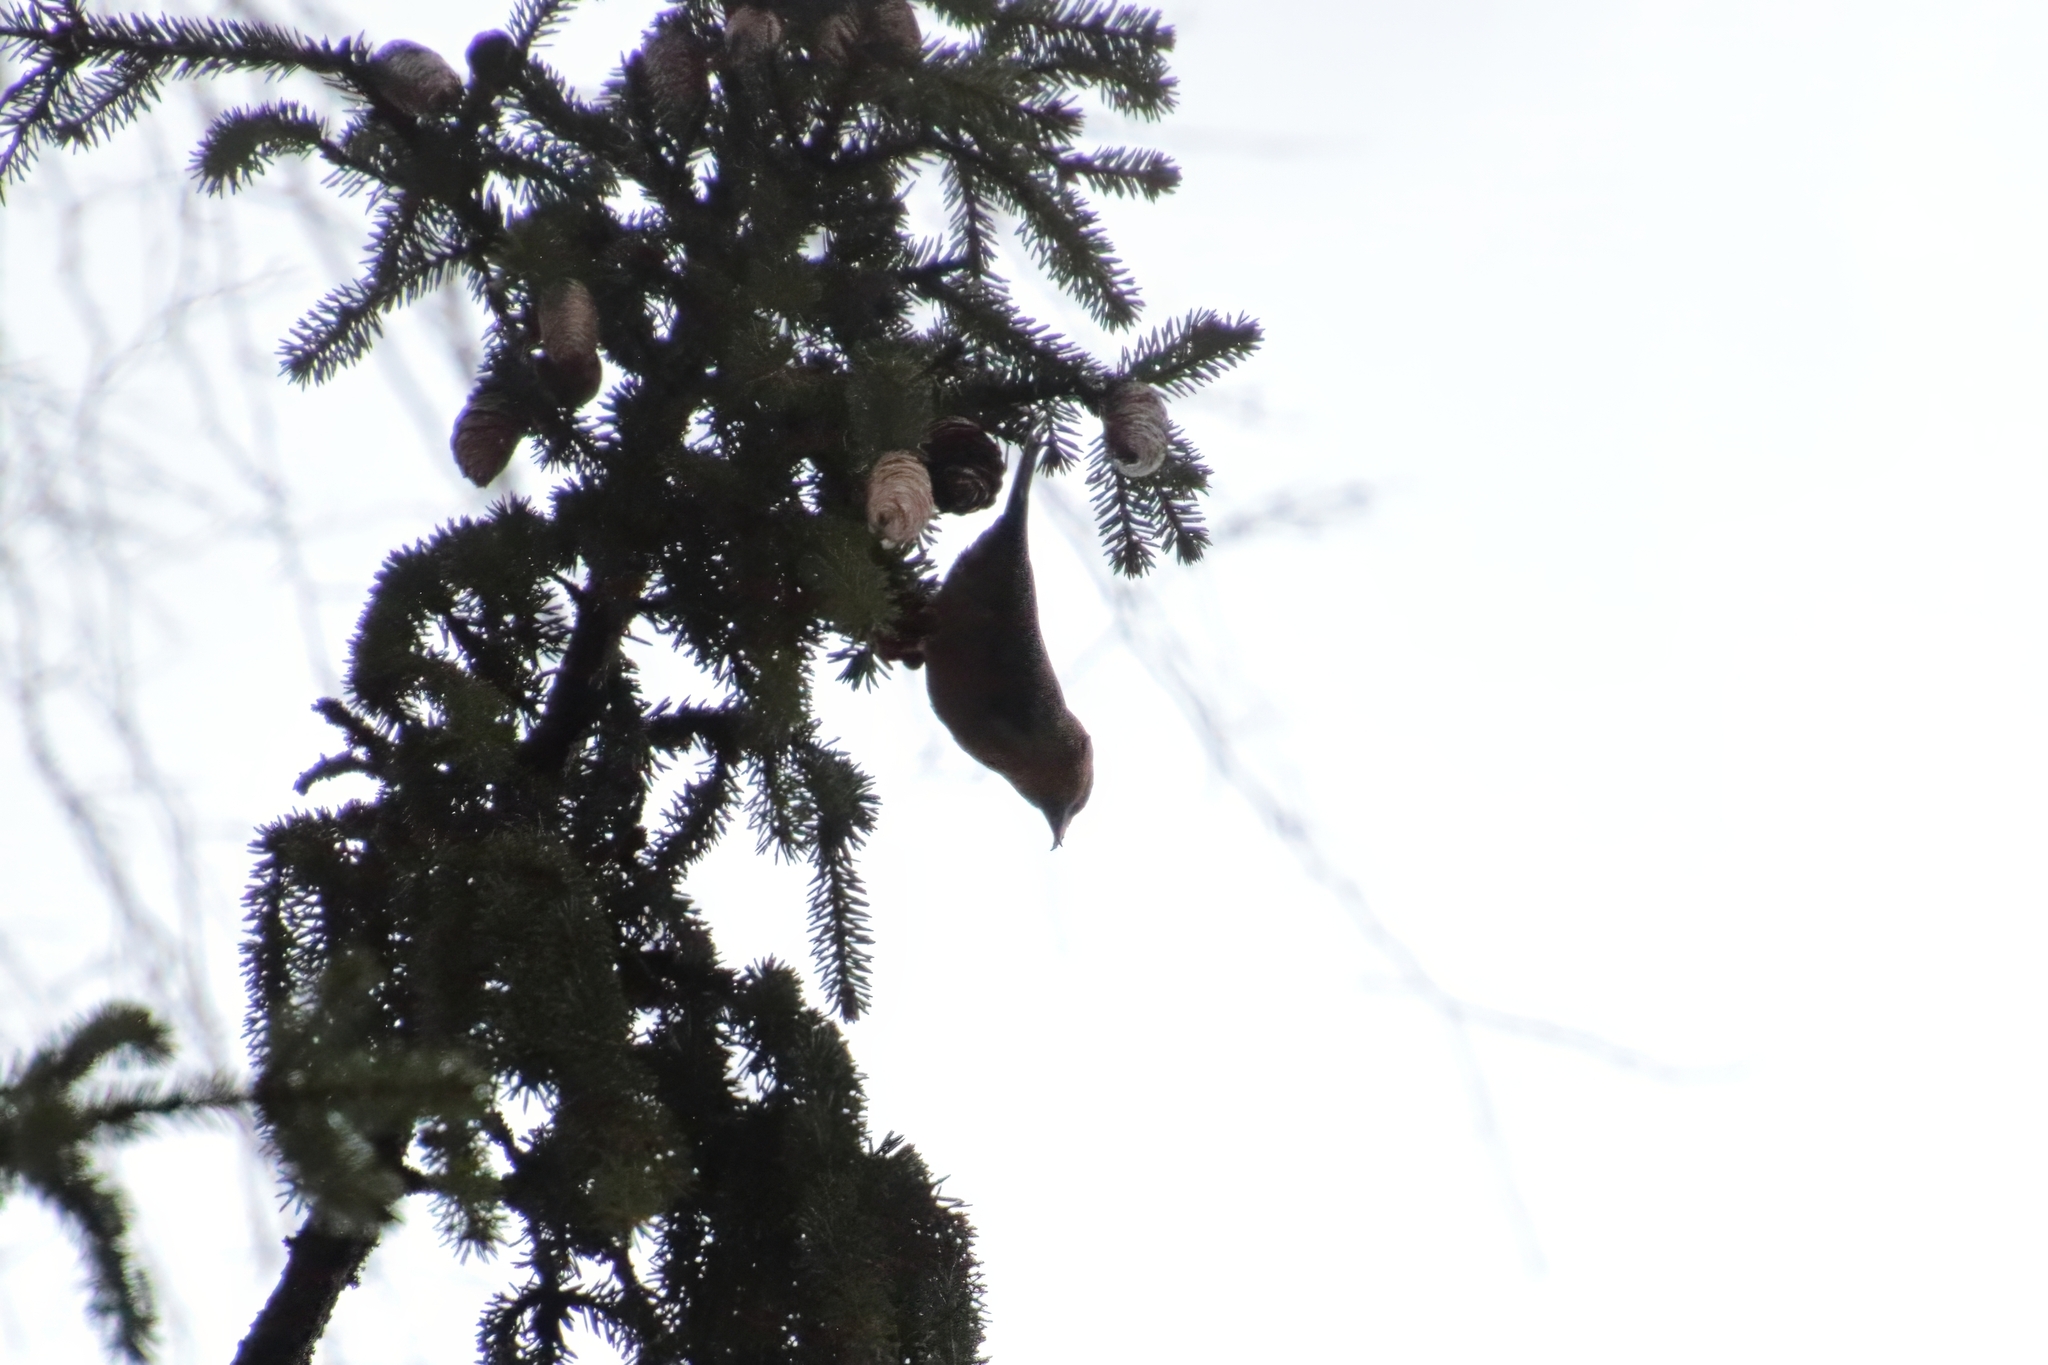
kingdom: Animalia
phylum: Chordata
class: Aves
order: Passeriformes
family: Fringillidae
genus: Loxia
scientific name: Loxia curvirostra
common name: Red crossbill
